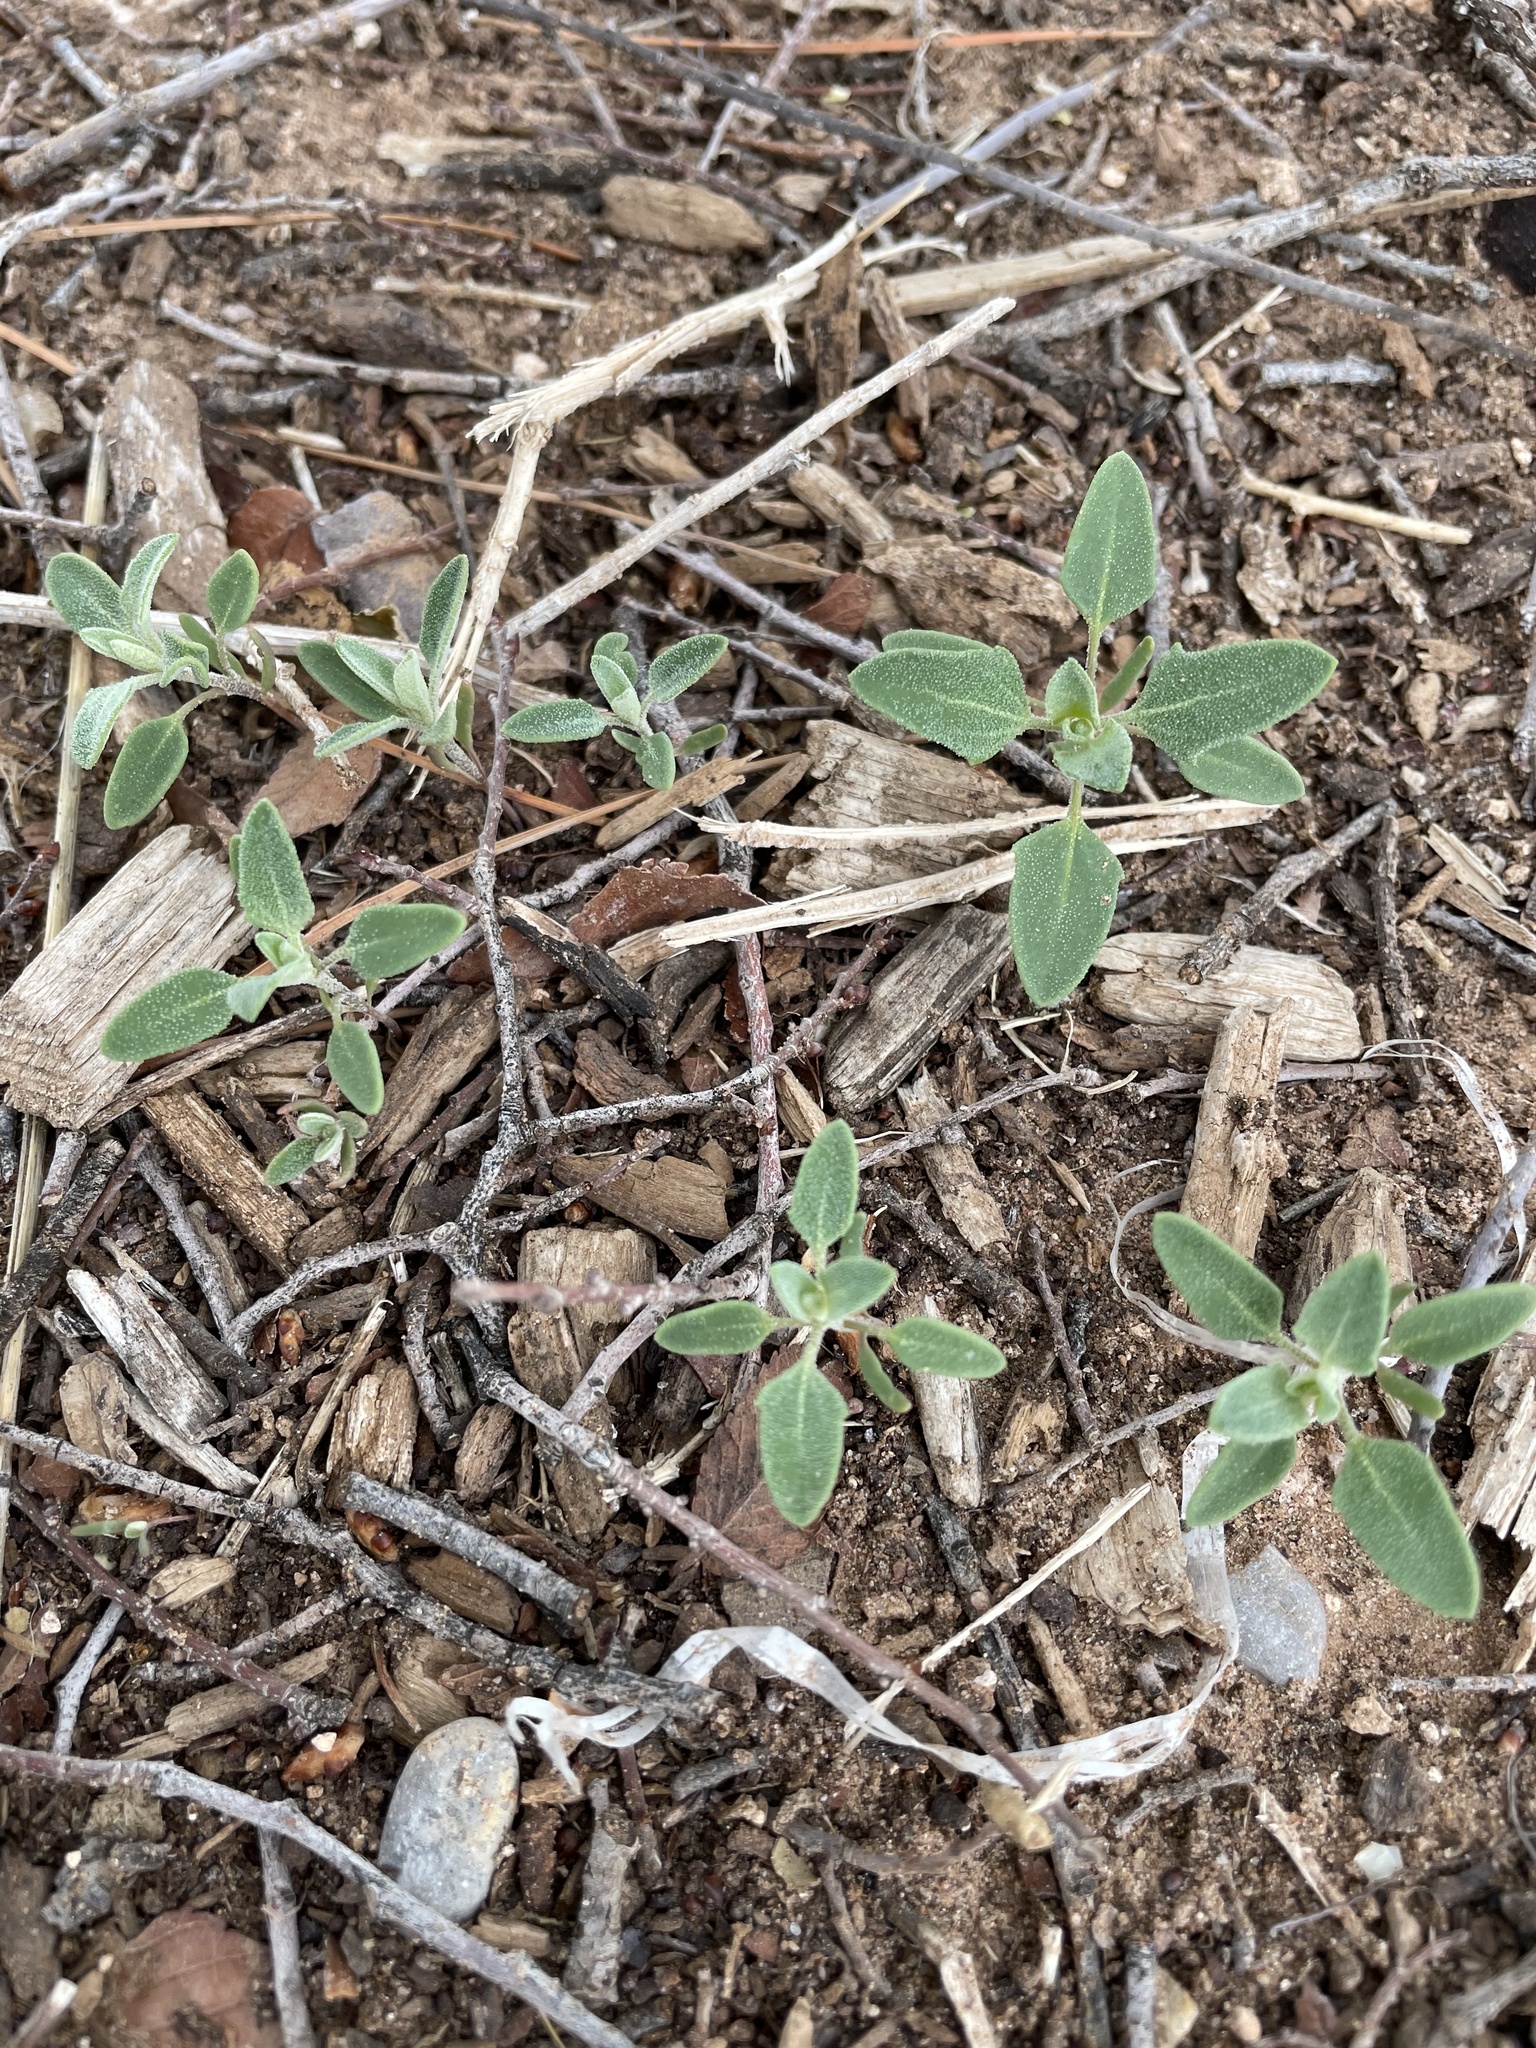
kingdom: Plantae
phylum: Tracheophyta
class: Magnoliopsida
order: Caryophyllales
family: Amaranthaceae
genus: Chenopodium
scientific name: Chenopodium album
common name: Fat-hen
